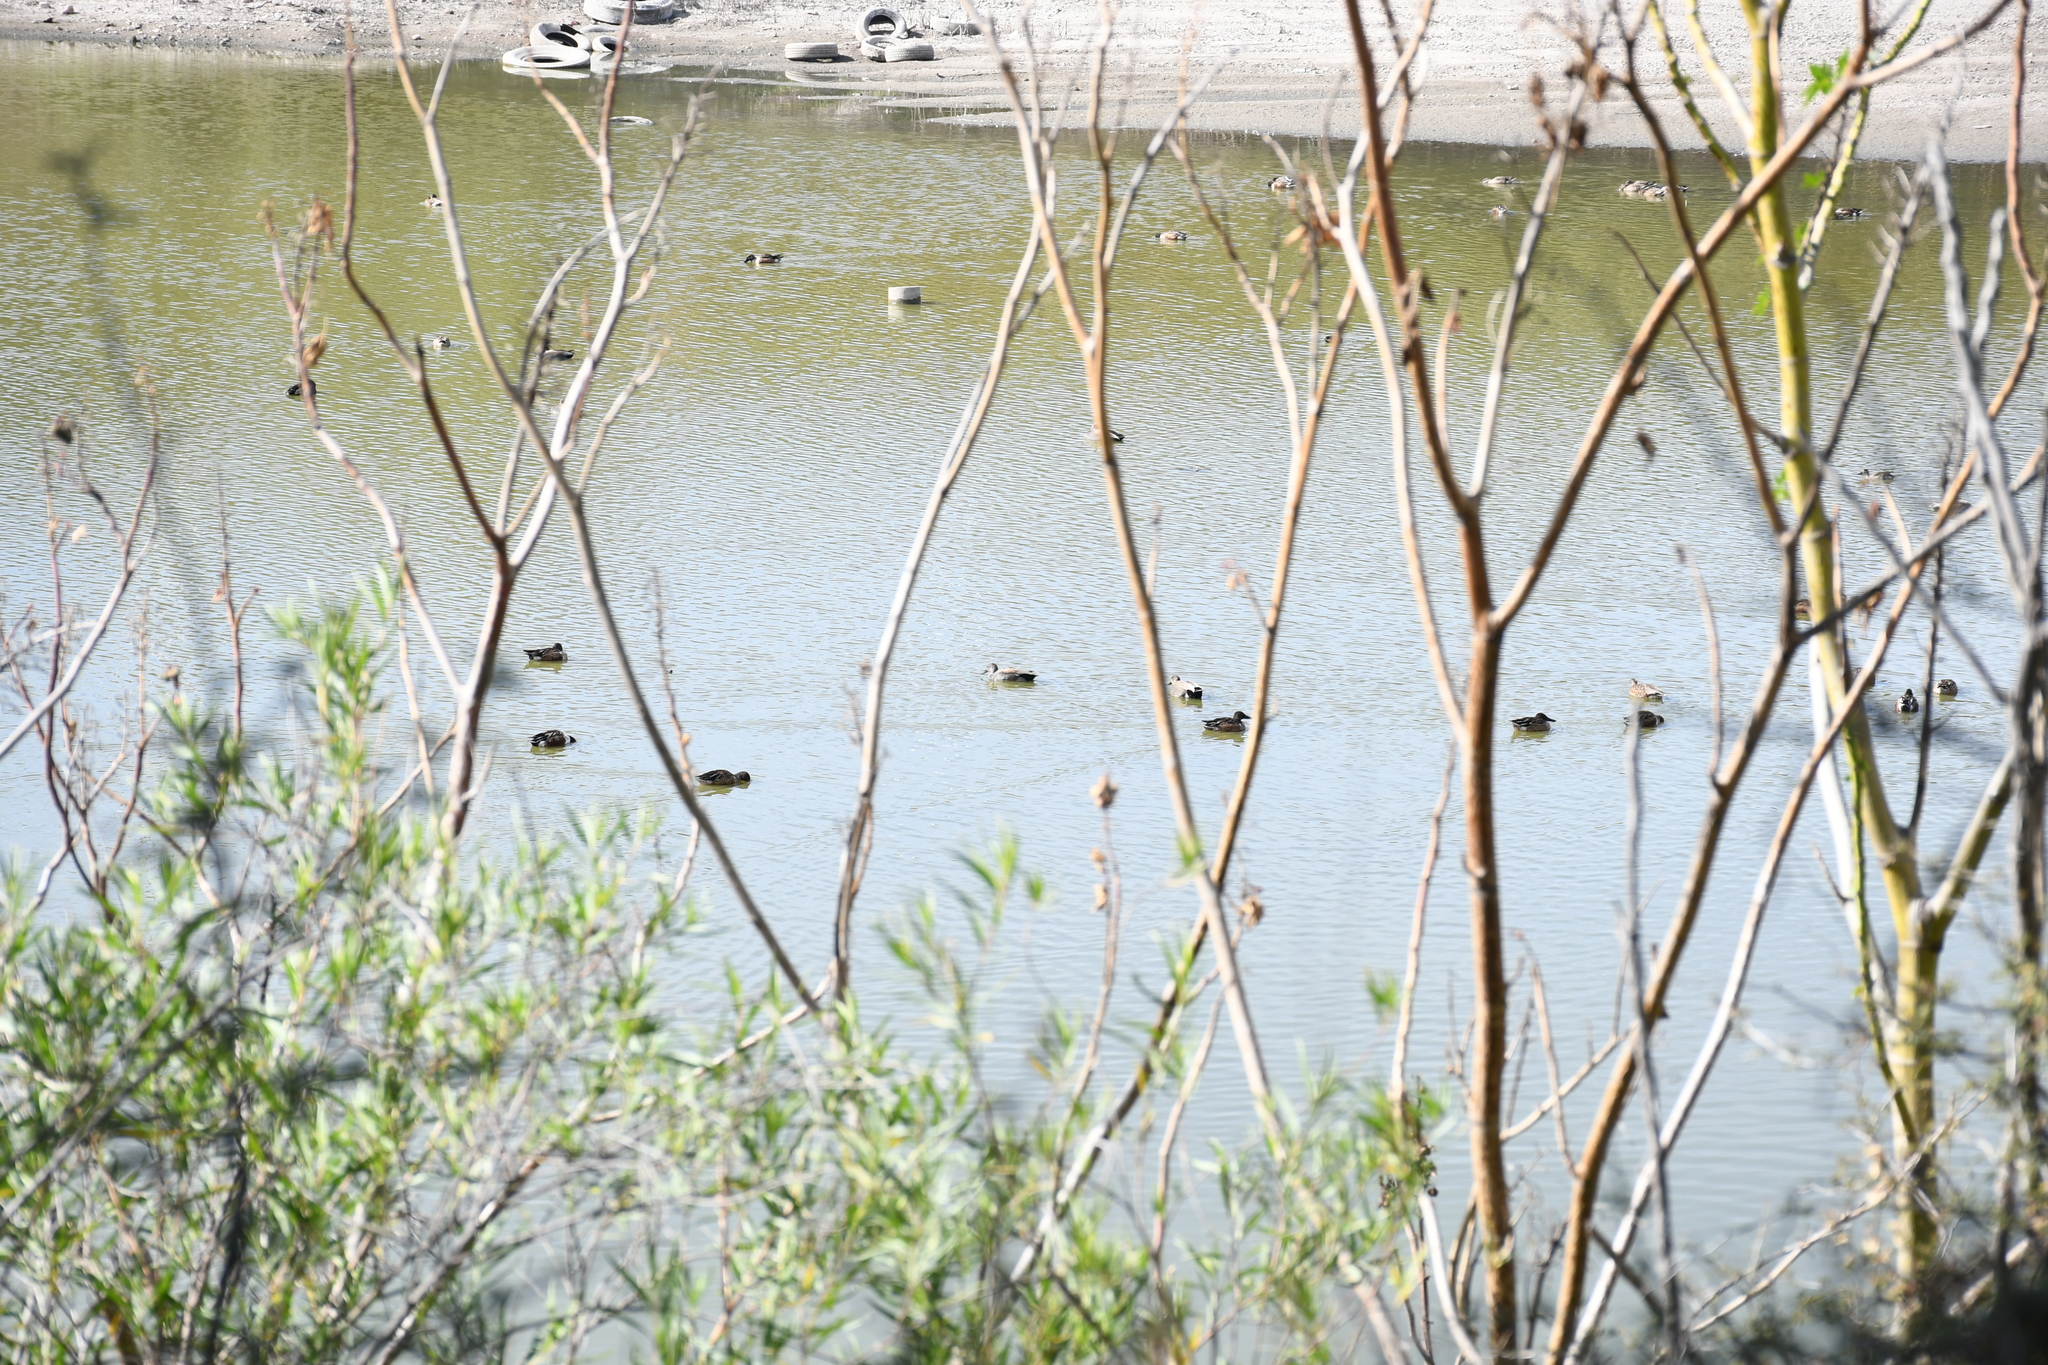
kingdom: Animalia
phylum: Chordata
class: Aves
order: Anseriformes
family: Anatidae
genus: Mareca
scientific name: Mareca strepera
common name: Gadwall
